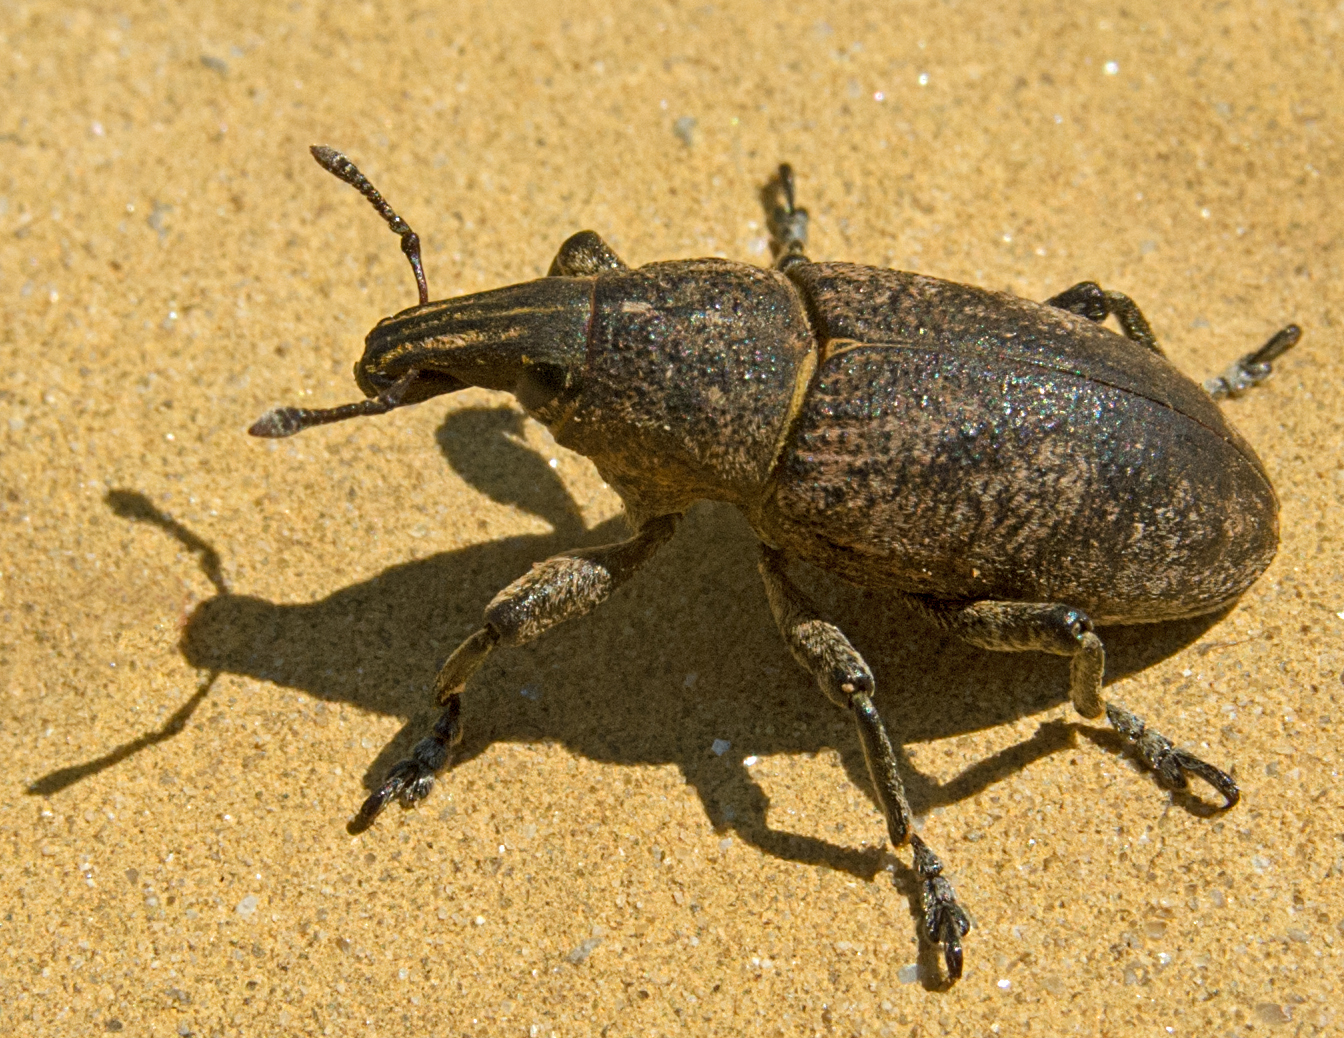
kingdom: Animalia
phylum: Arthropoda
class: Insecta
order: Coleoptera
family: Curculionidae
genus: Cleonis
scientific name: Cleonis pigra
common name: Large thistle weevil
